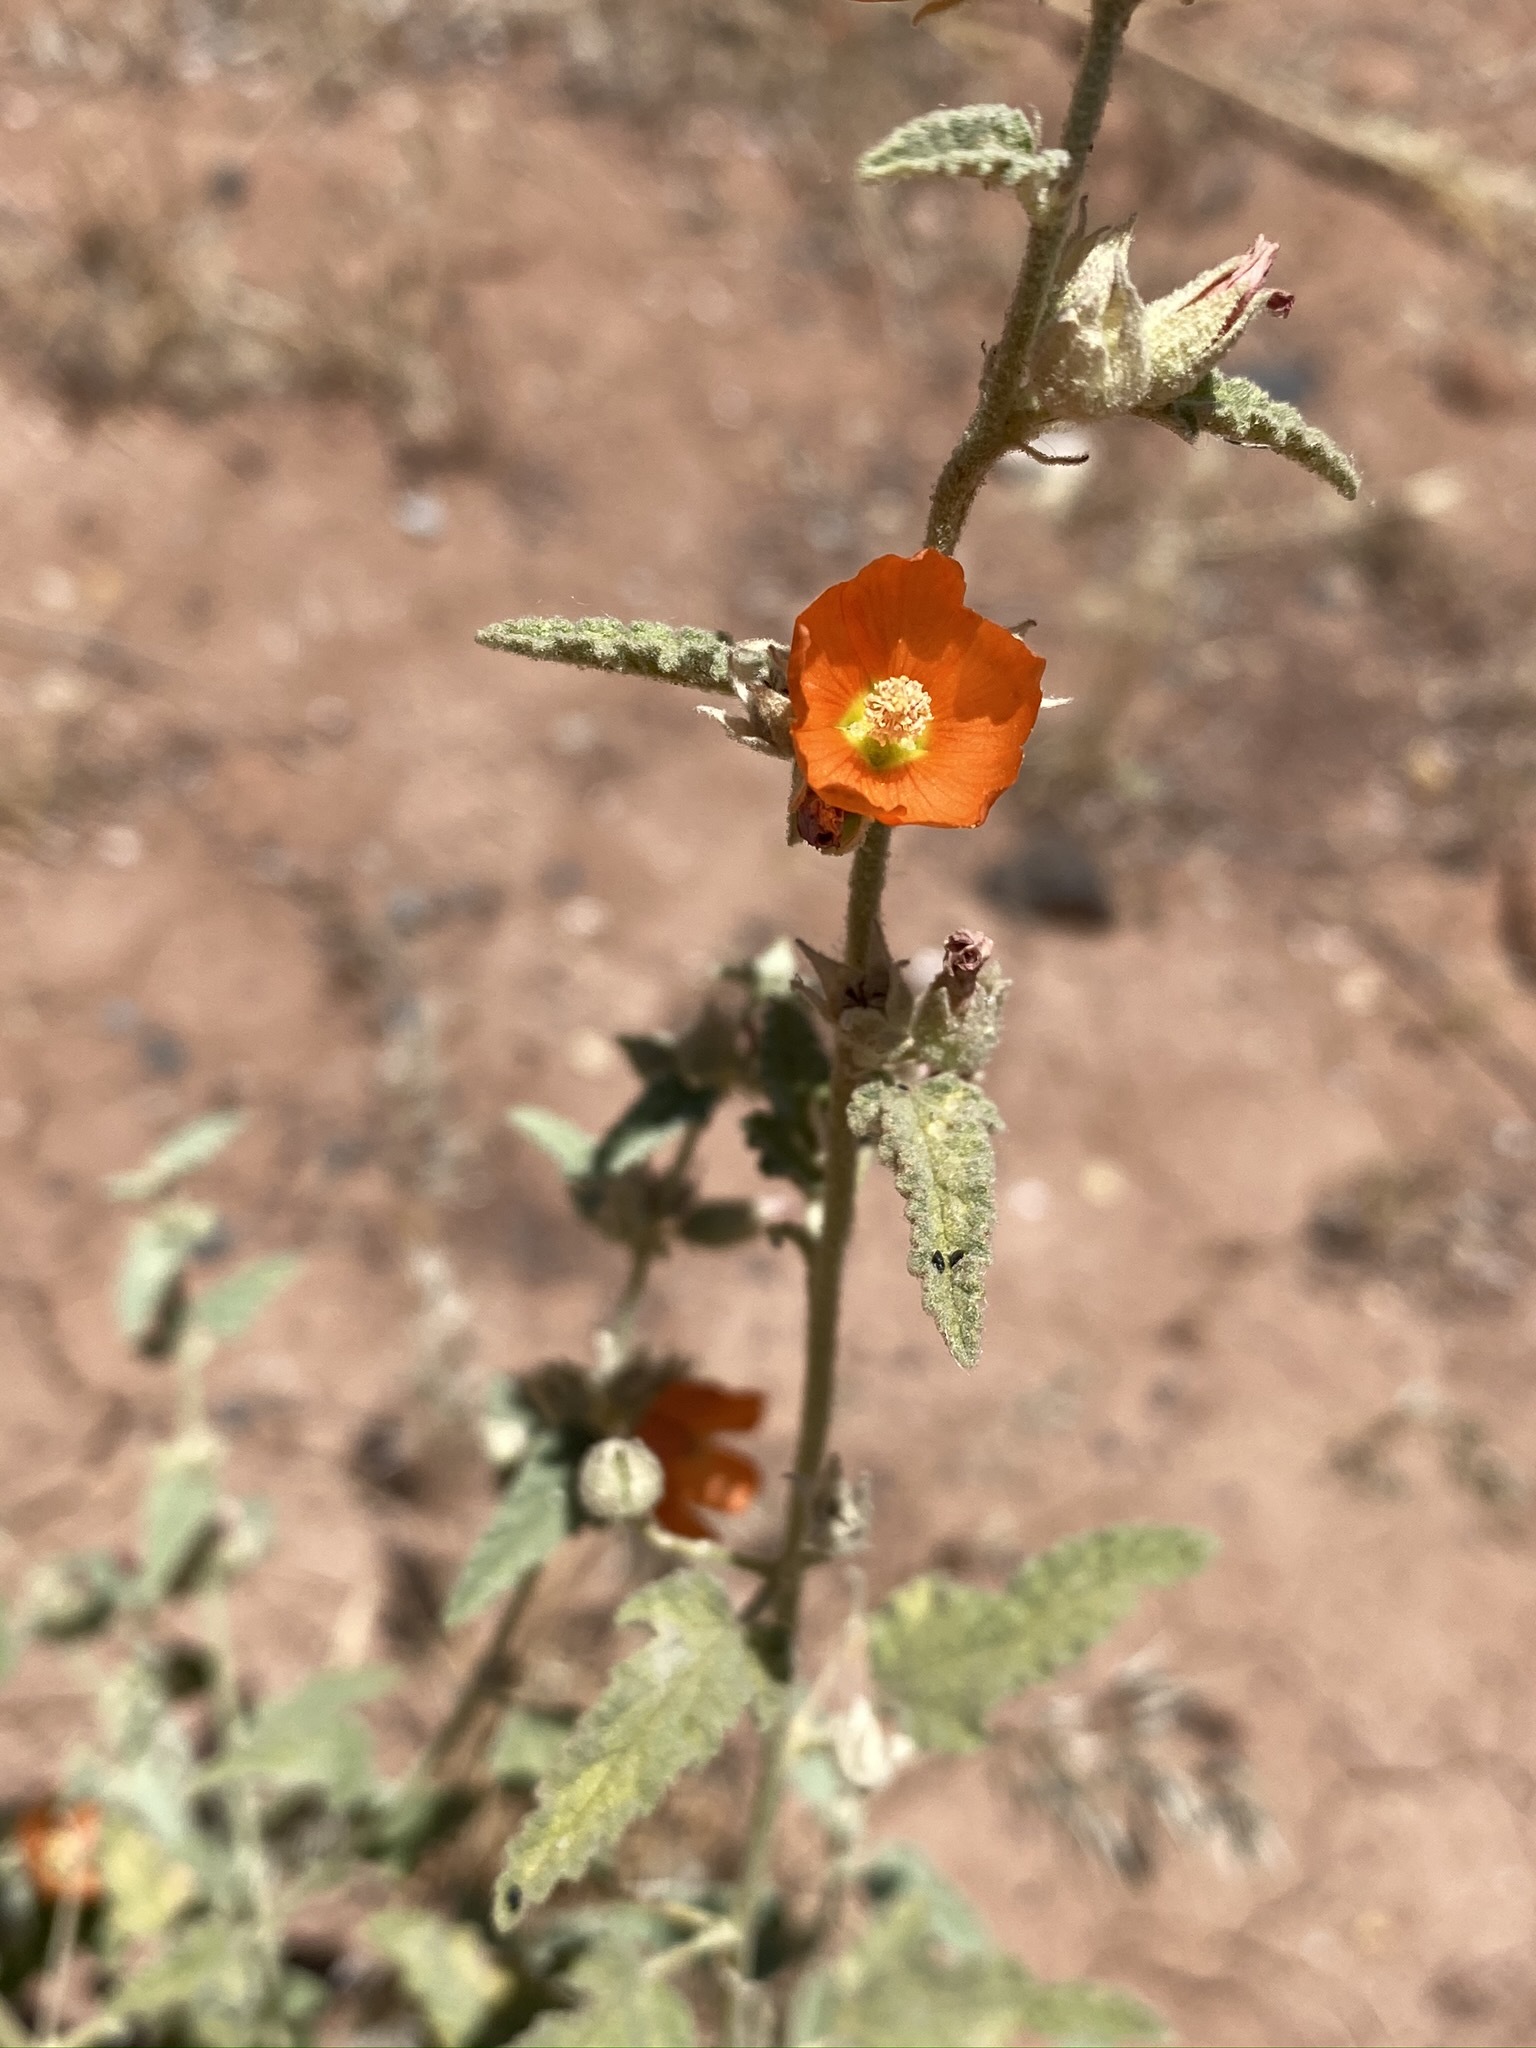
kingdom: Plantae
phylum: Tracheophyta
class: Magnoliopsida
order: Malvales
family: Malvaceae
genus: Sphaeralcea
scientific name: Sphaeralcea angustifolia
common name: Copper globe-mallow
